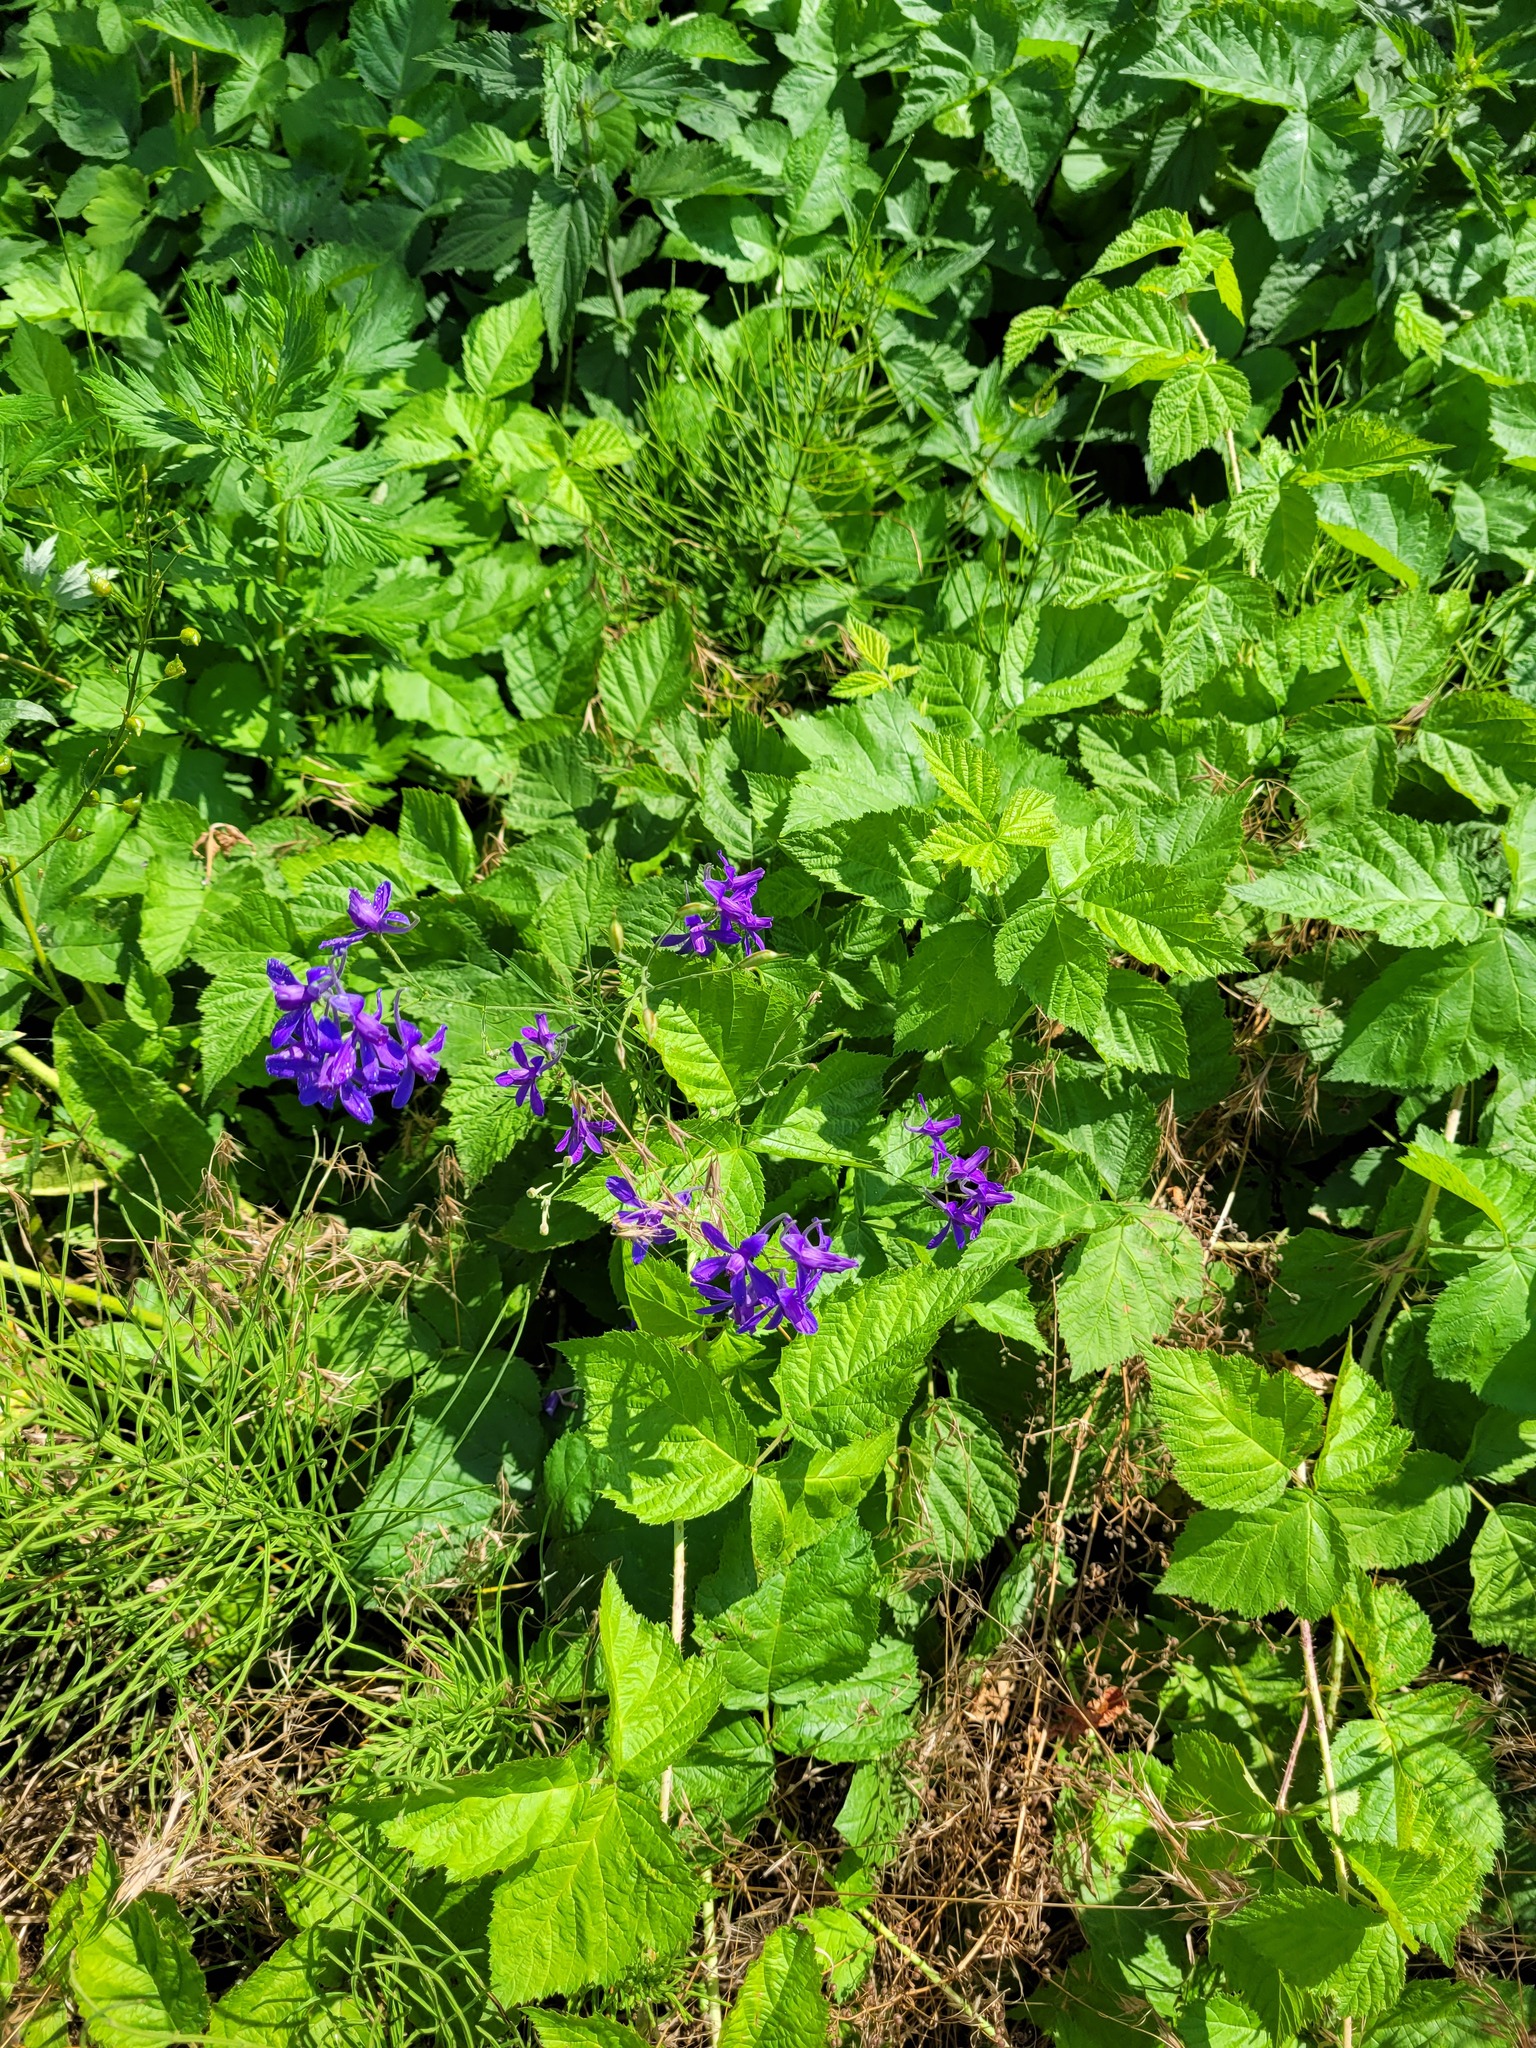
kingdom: Plantae
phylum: Tracheophyta
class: Magnoliopsida
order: Ranunculales
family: Ranunculaceae
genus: Delphinium
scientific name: Delphinium consolida
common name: Branching larkspur
